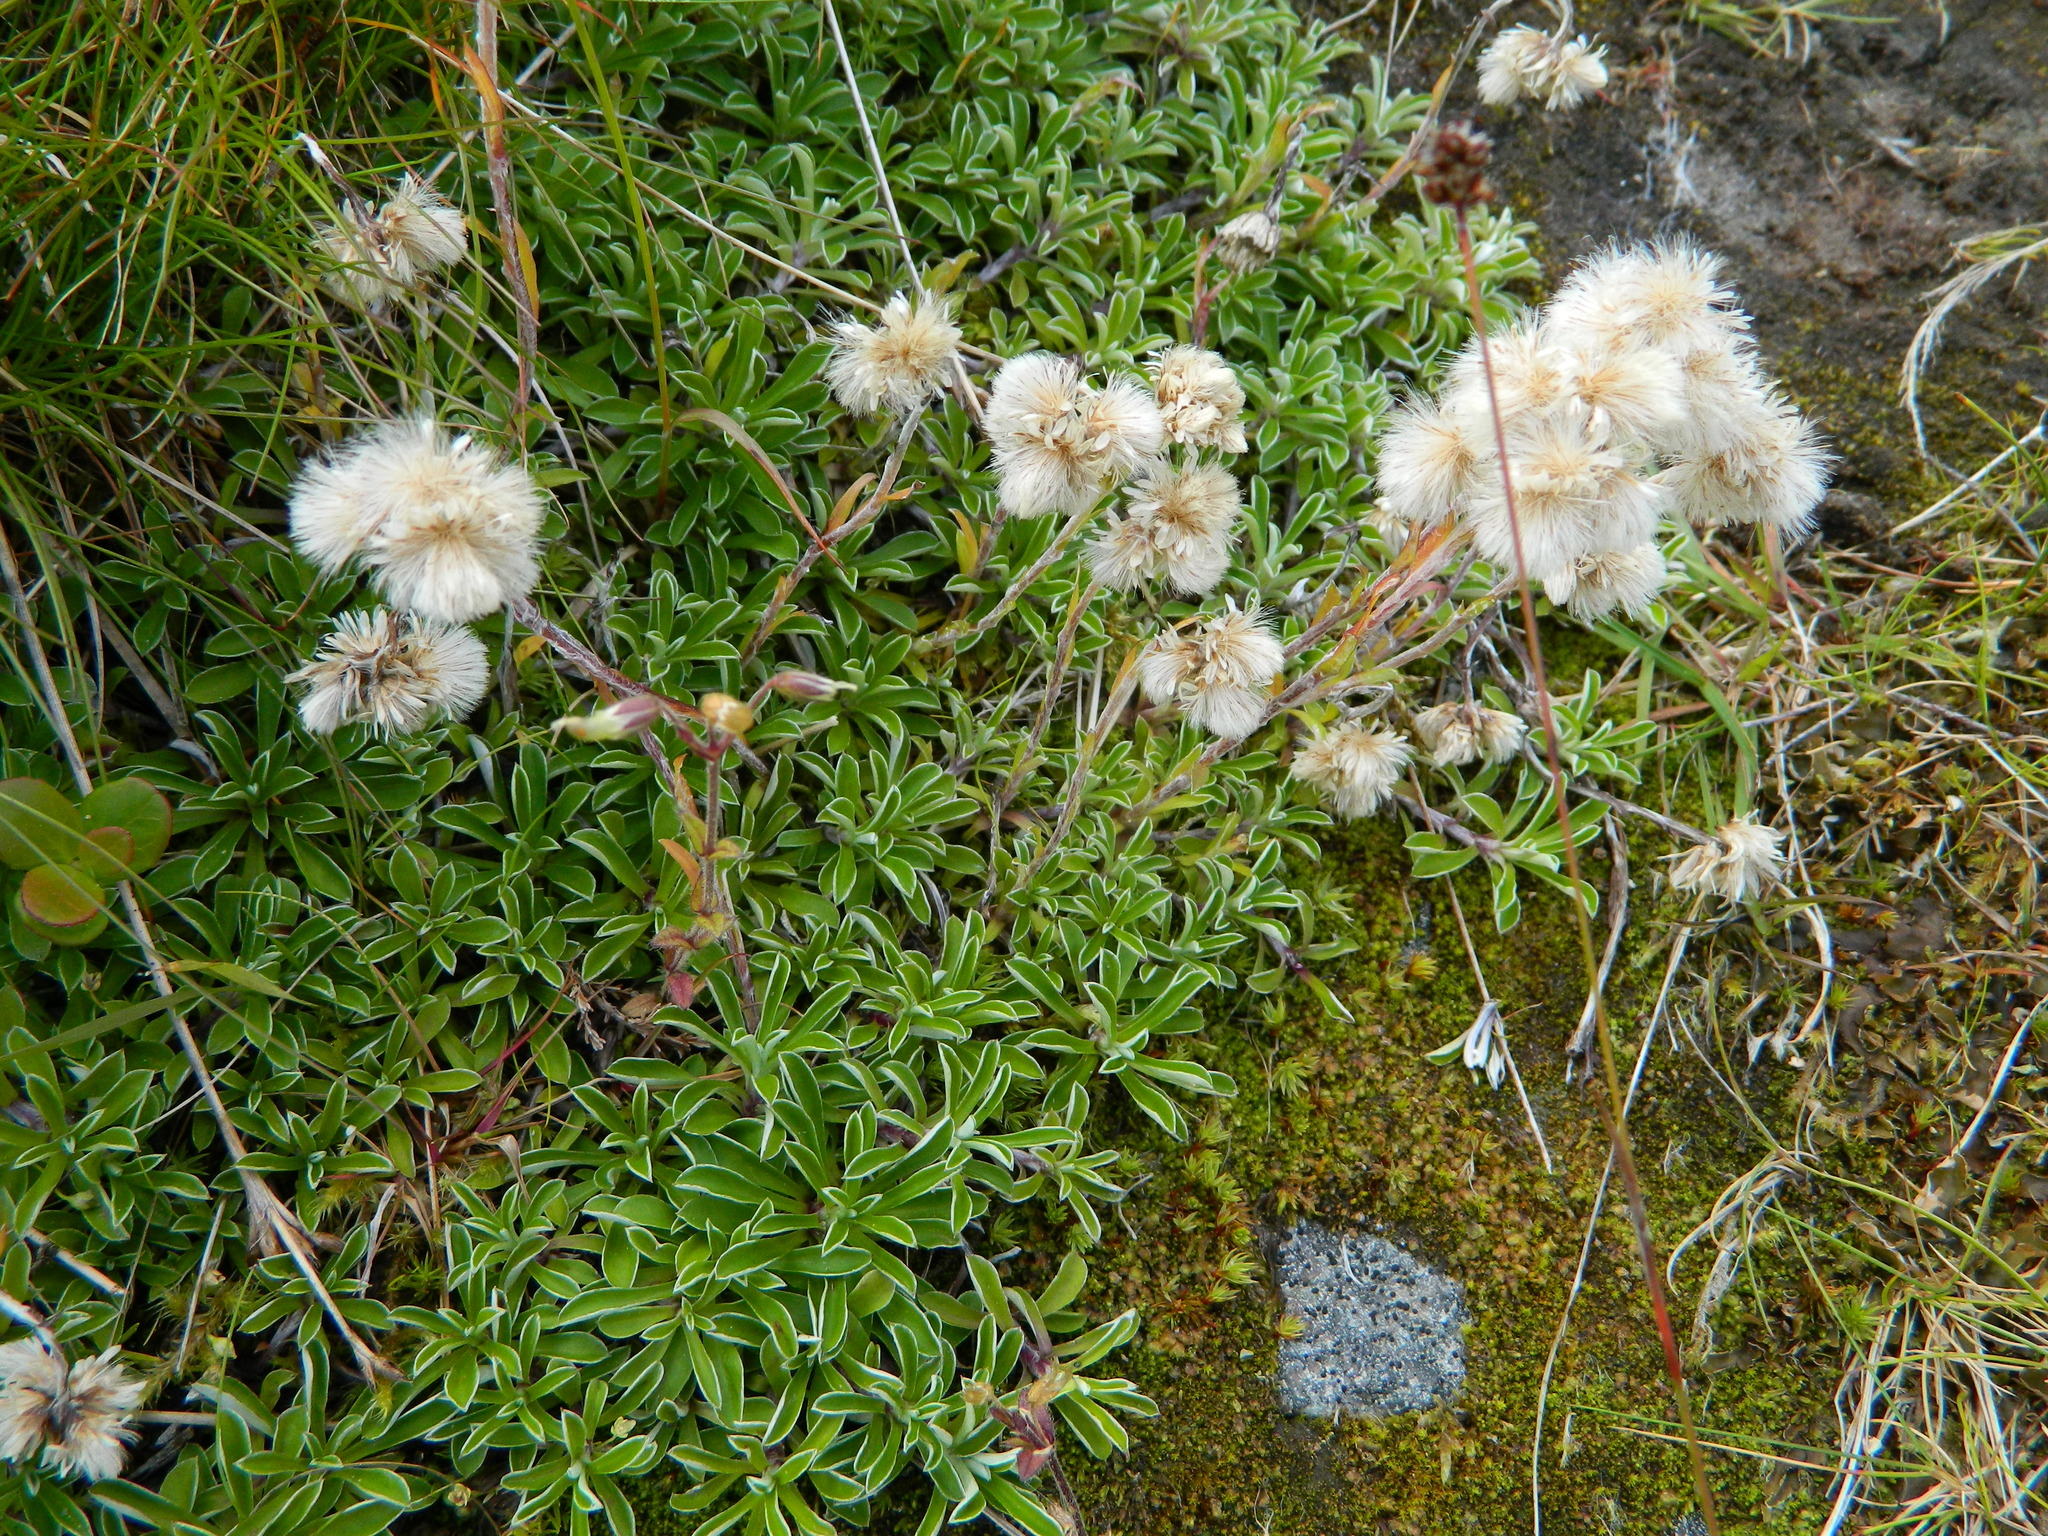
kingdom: Plantae
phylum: Tracheophyta
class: Magnoliopsida
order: Asterales
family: Asteraceae
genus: Antennaria
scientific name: Antennaria dioica
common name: Mountain everlasting
